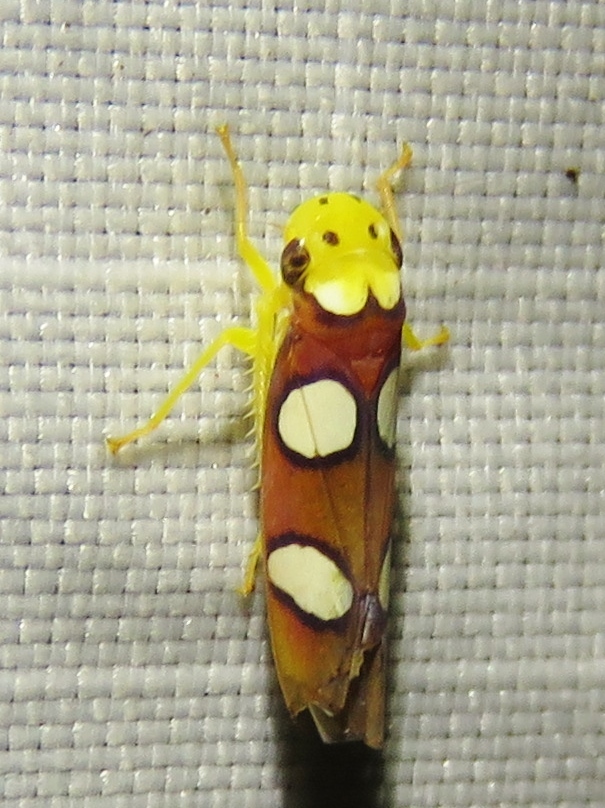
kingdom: Animalia
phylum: Arthropoda
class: Insecta
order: Hemiptera
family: Cicadellidae
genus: Erythrogonia
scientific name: Erythrogonia laudata
